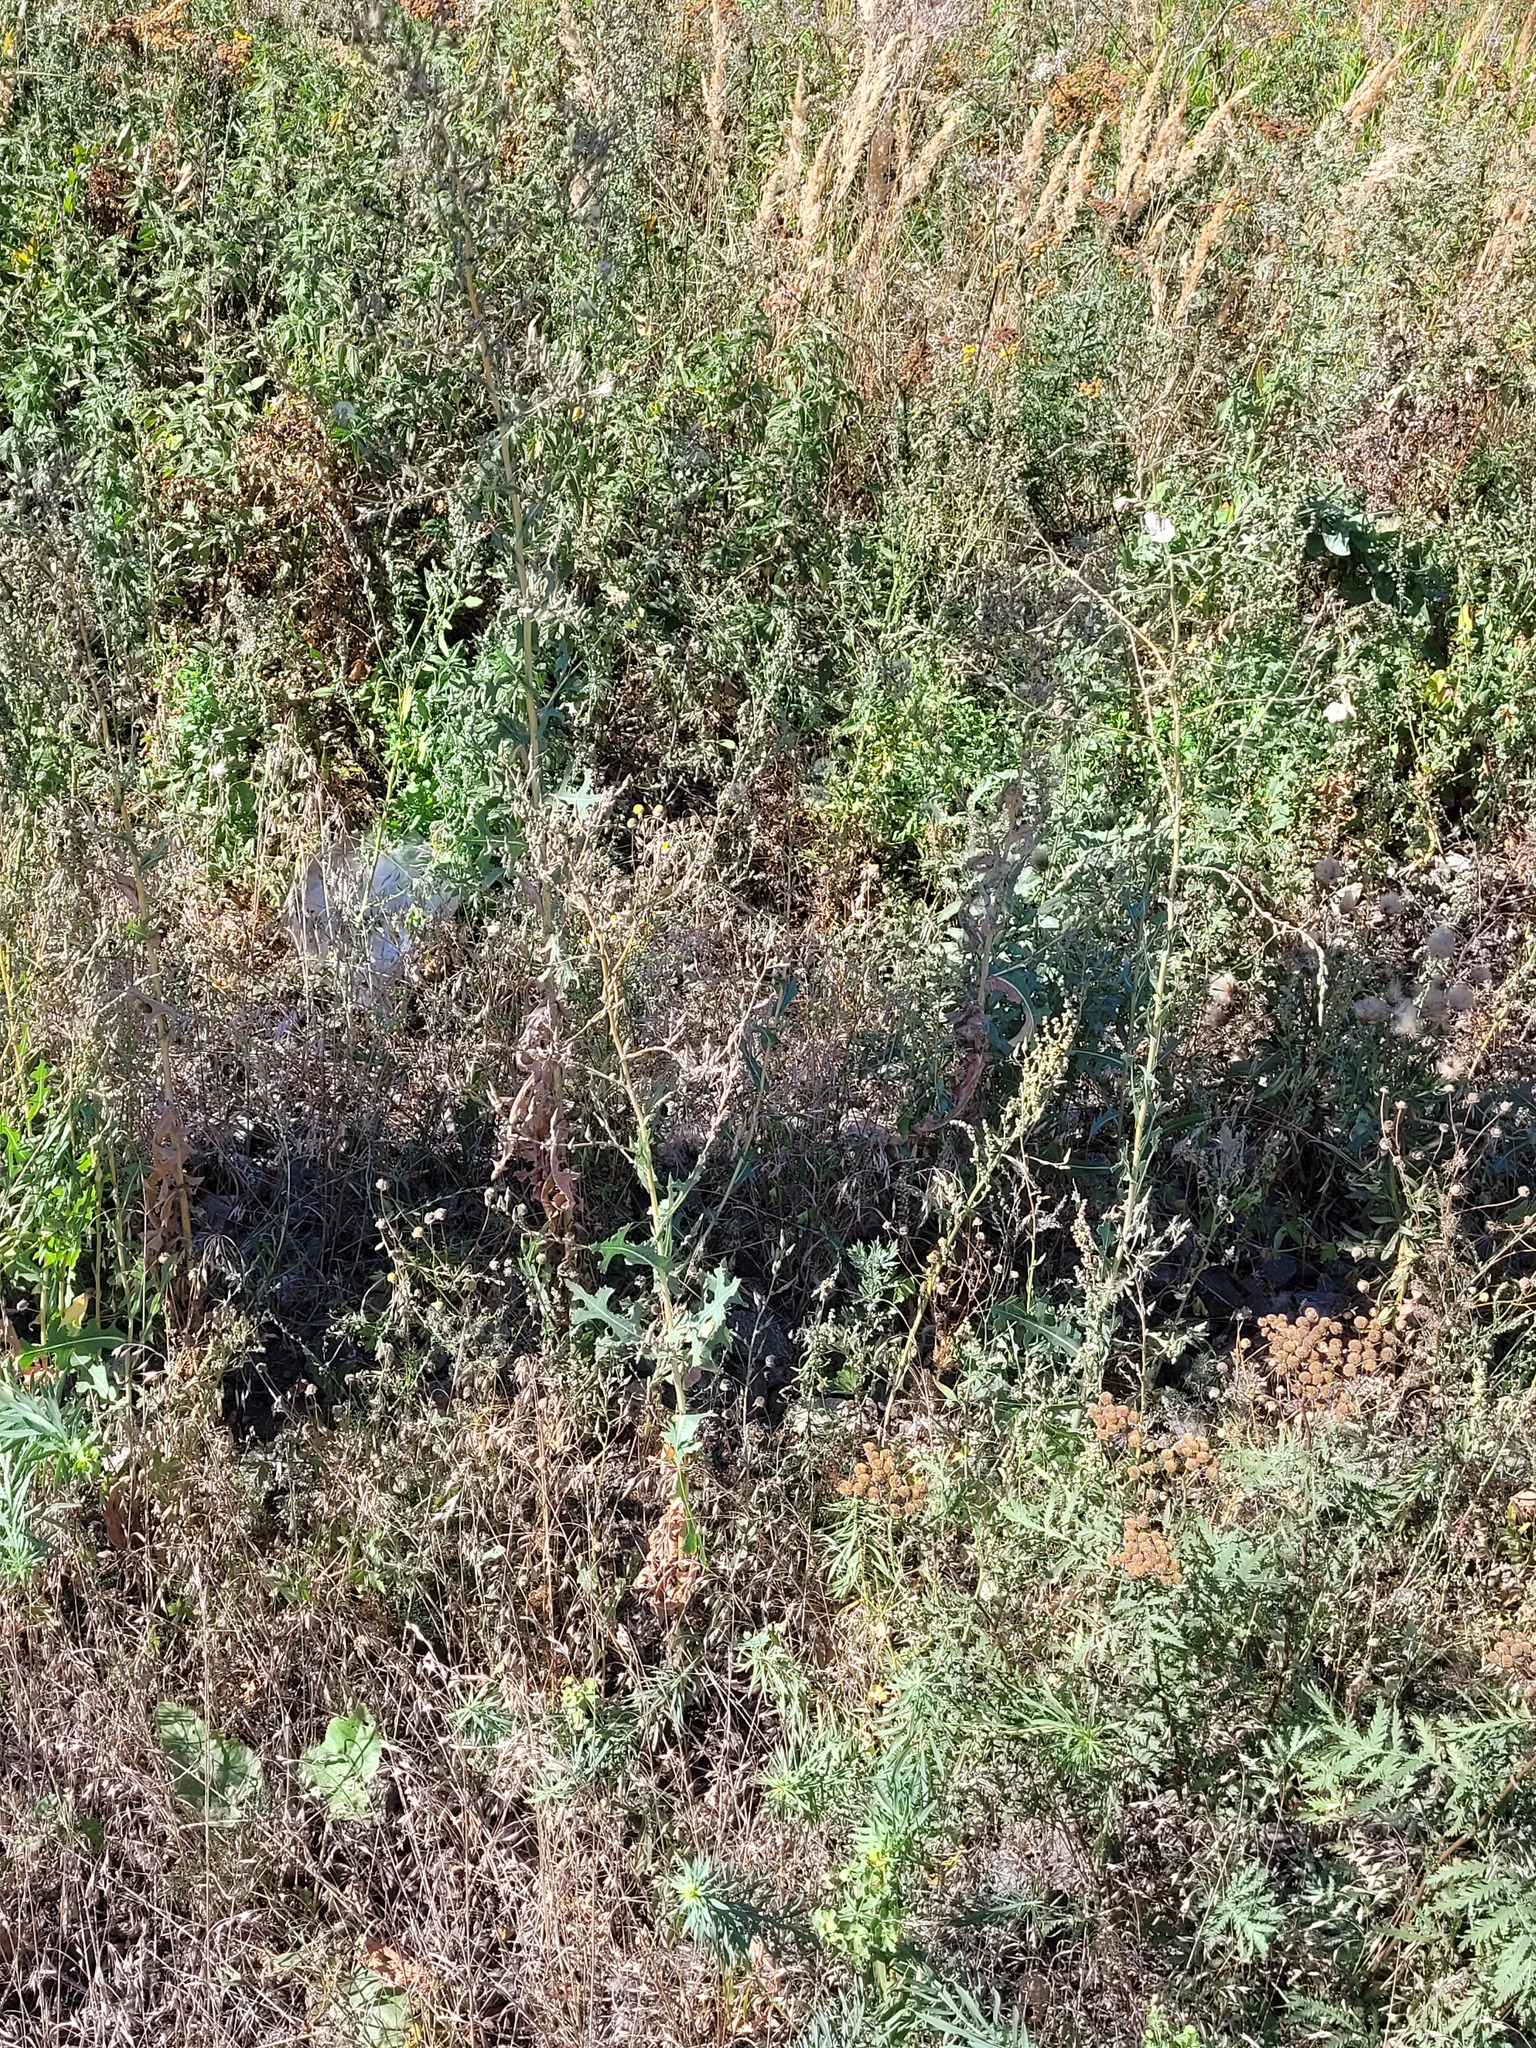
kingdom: Plantae
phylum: Tracheophyta
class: Magnoliopsida
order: Asterales
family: Asteraceae
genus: Lactuca
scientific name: Lactuca serriola
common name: Prickly lettuce
